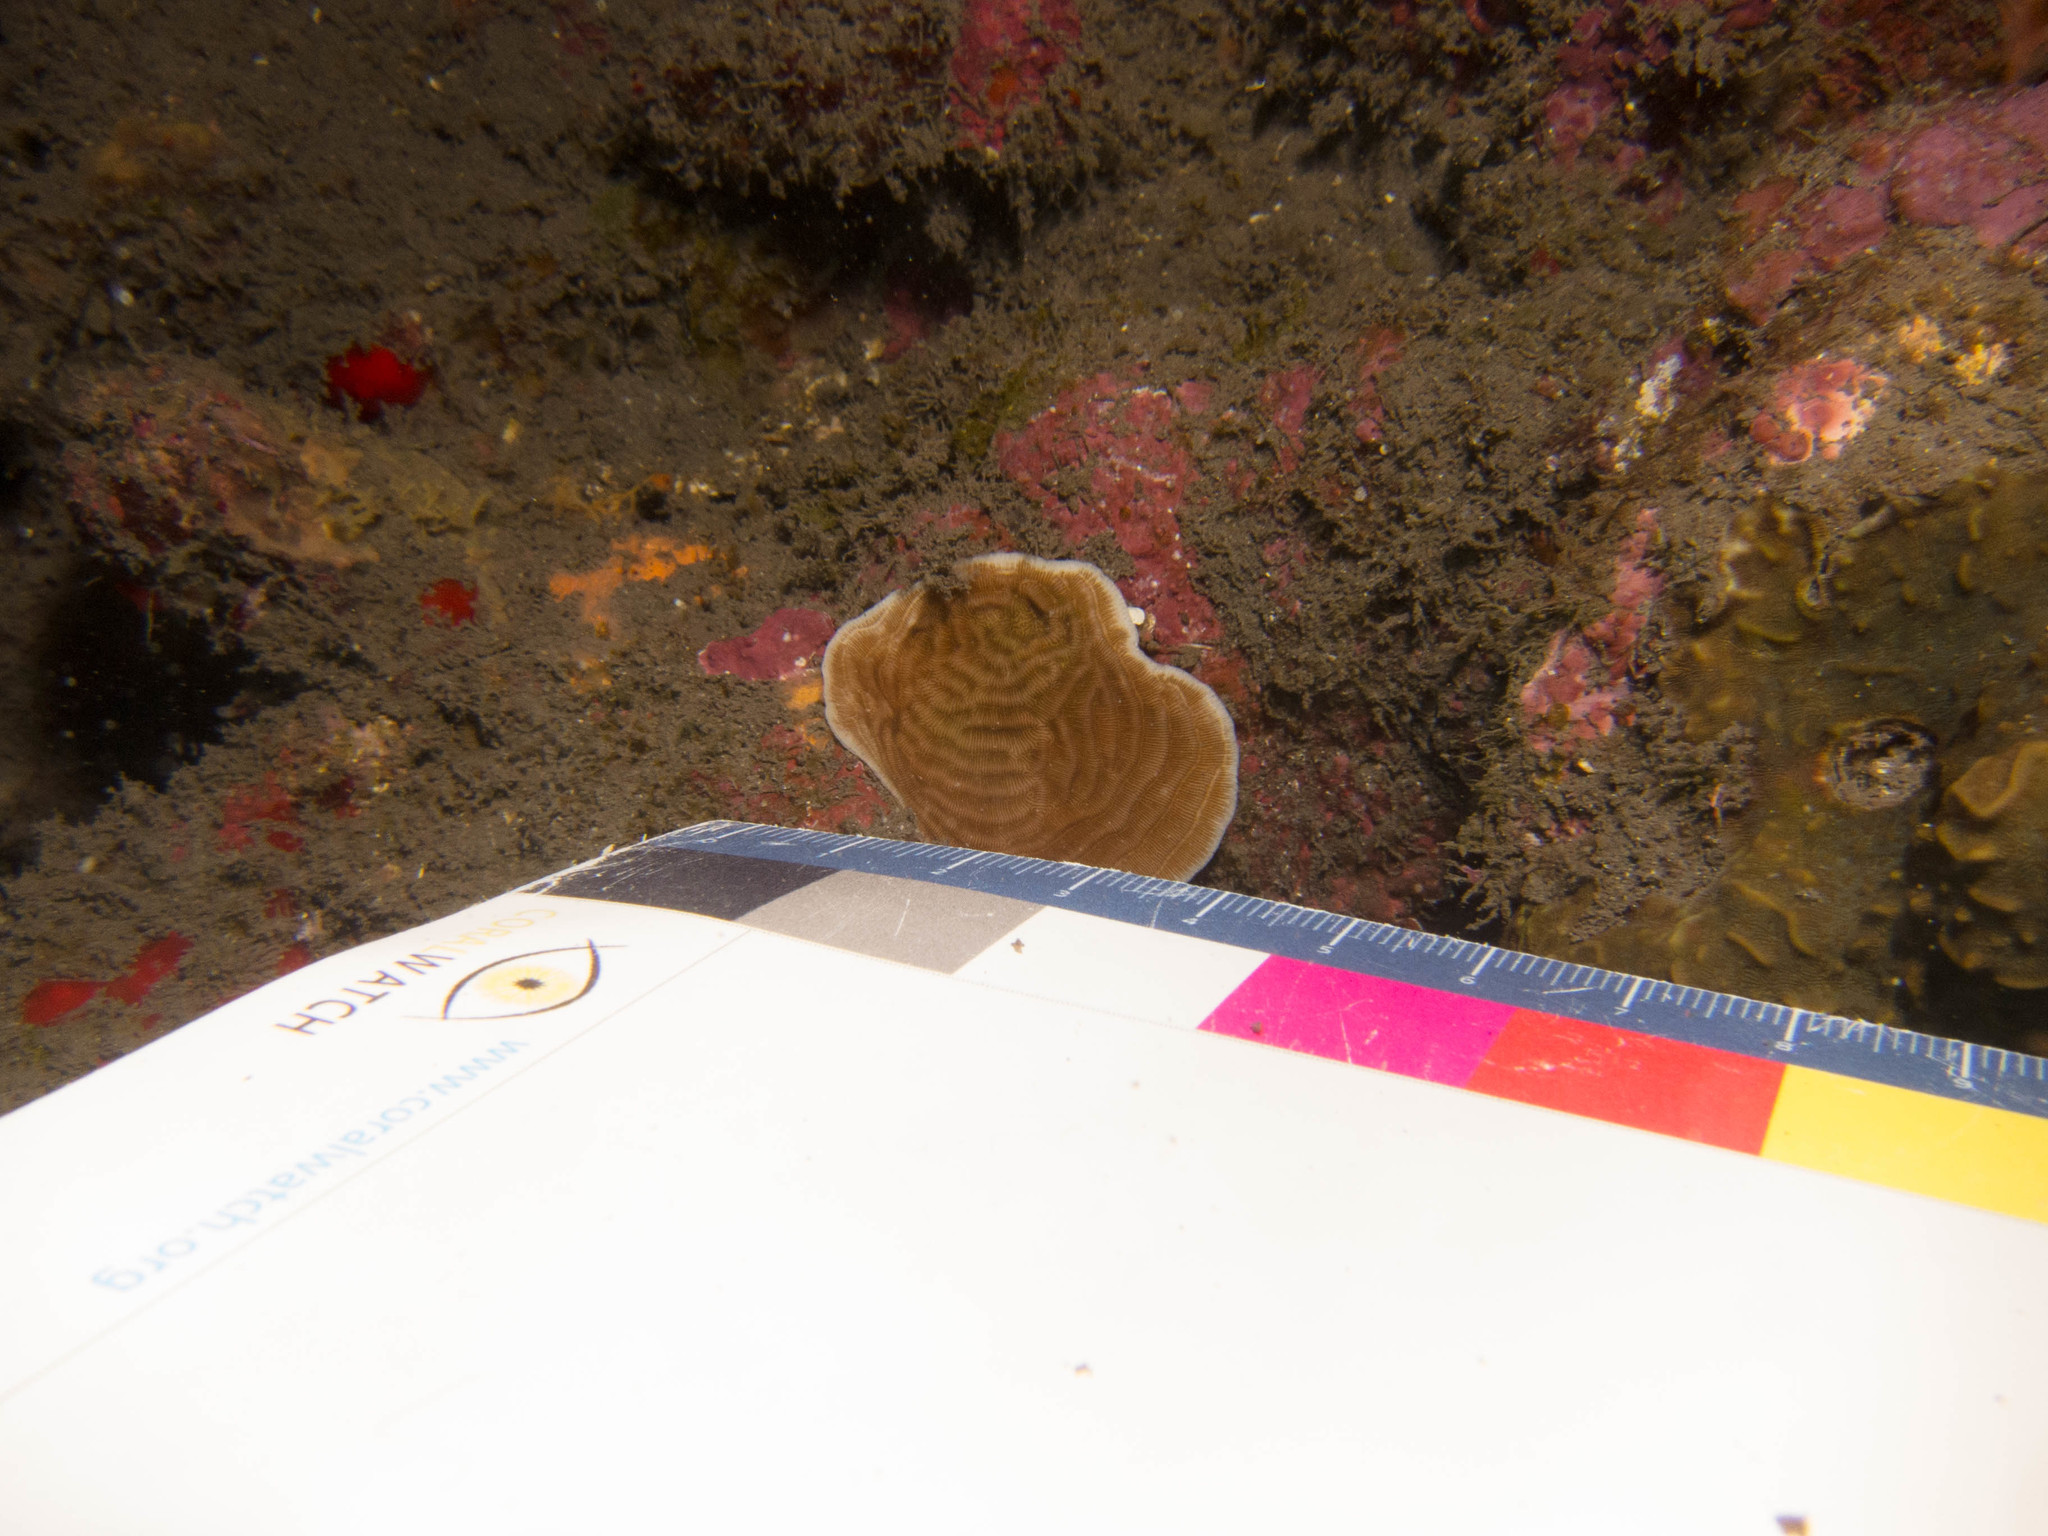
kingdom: Animalia
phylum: Cnidaria
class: Anthozoa
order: Scleractinia
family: Pachyseridae
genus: Pachyseris
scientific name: Pachyseris speciosa
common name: Serpent coral
